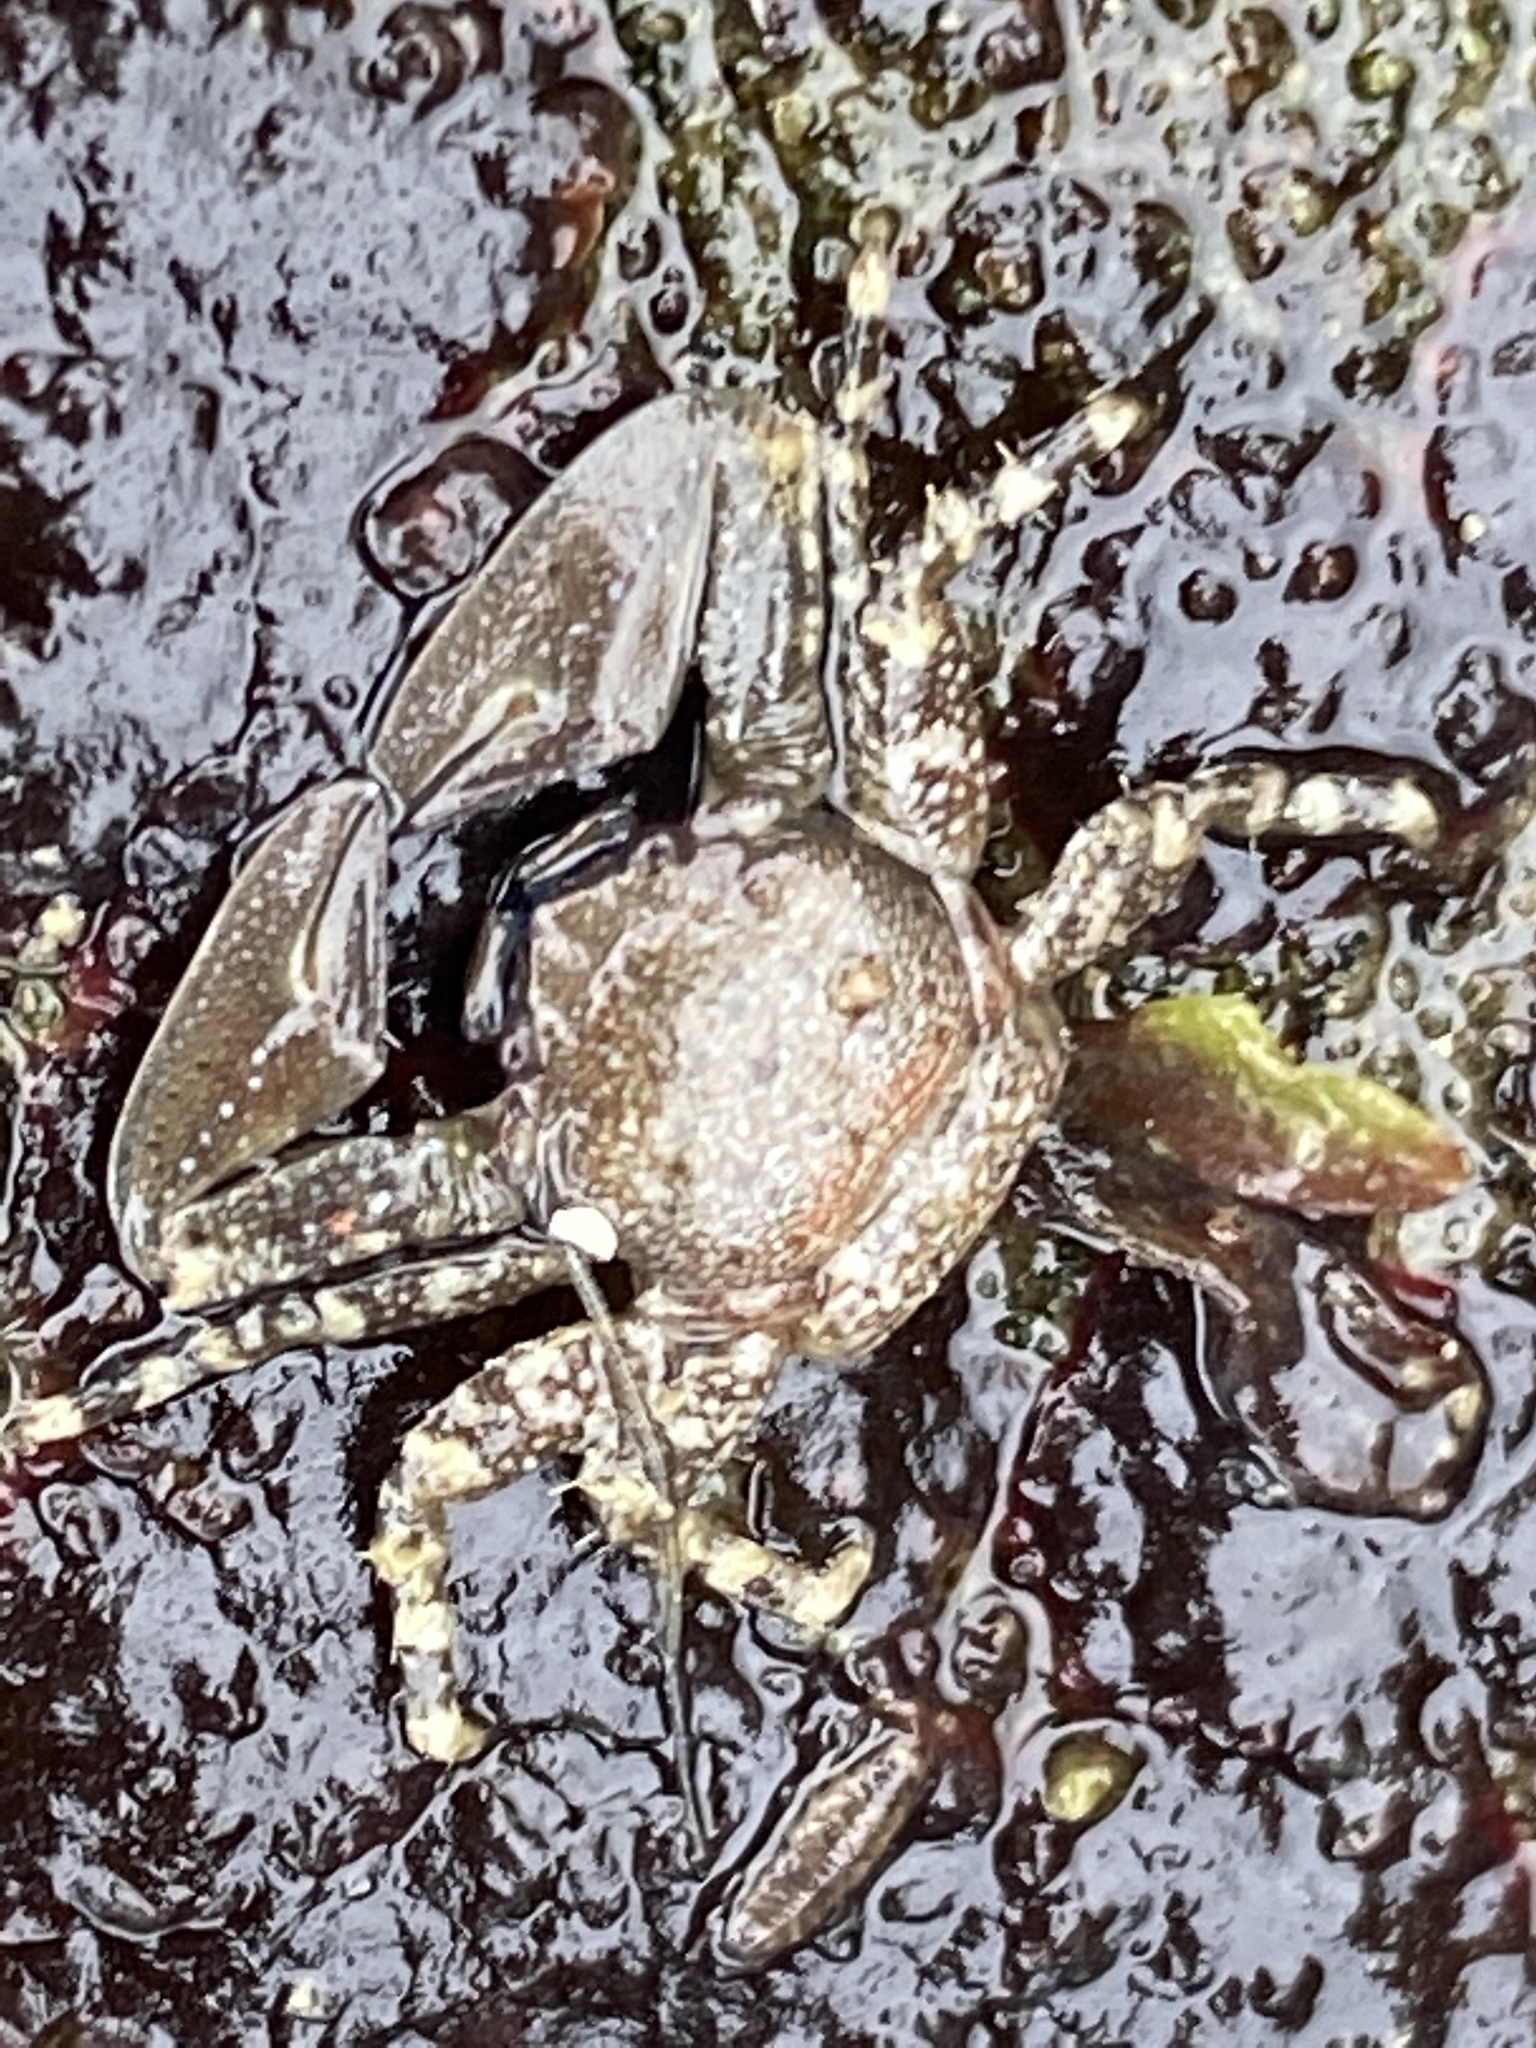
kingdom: Animalia
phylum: Arthropoda
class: Malacostraca
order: Decapoda
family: Porcellanidae
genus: Petrolisthes
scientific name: Petrolisthes manimaculis
